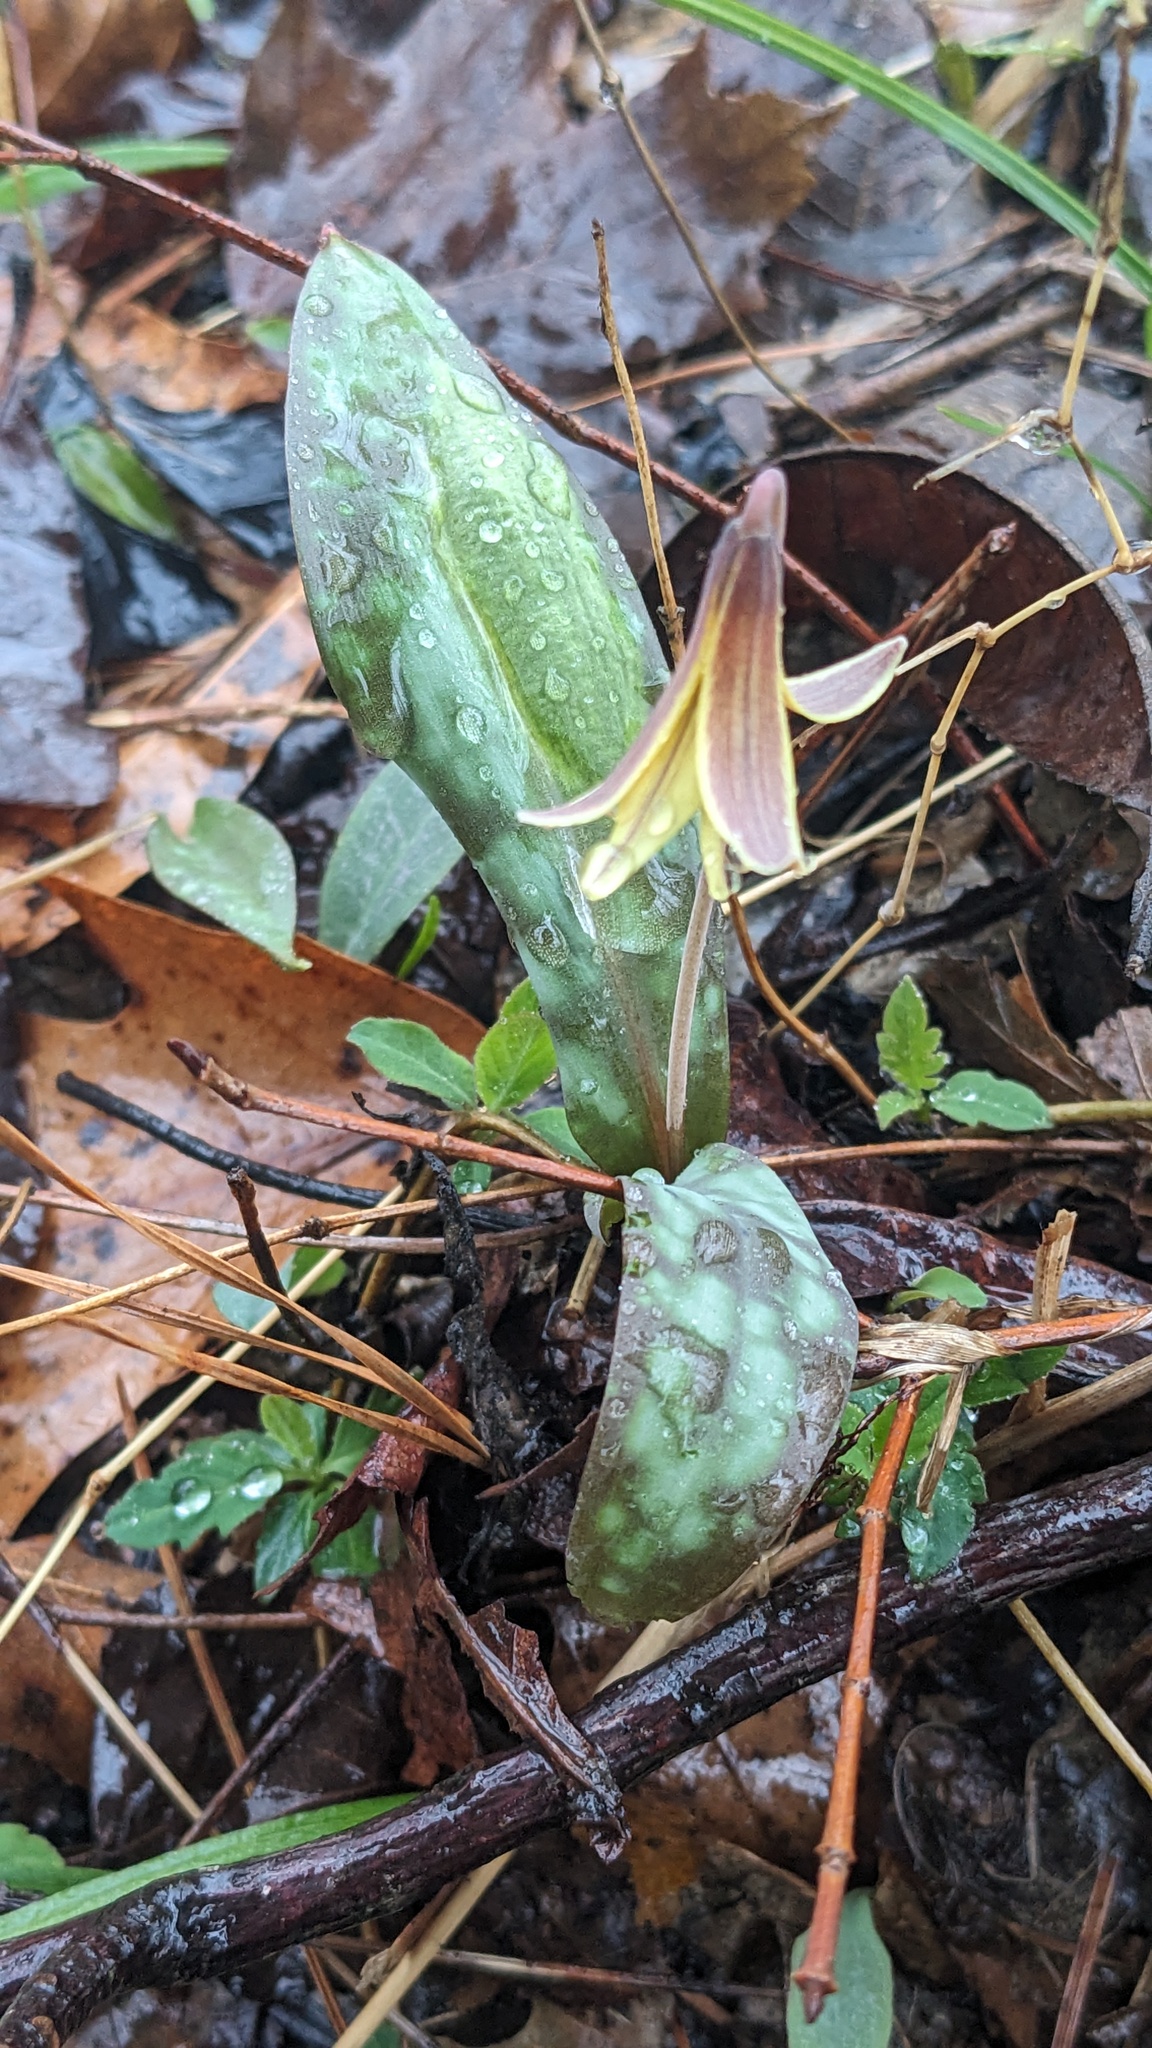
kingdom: Plantae
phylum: Tracheophyta
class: Liliopsida
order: Liliales
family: Liliaceae
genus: Erythronium
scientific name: Erythronium umbilicatum
